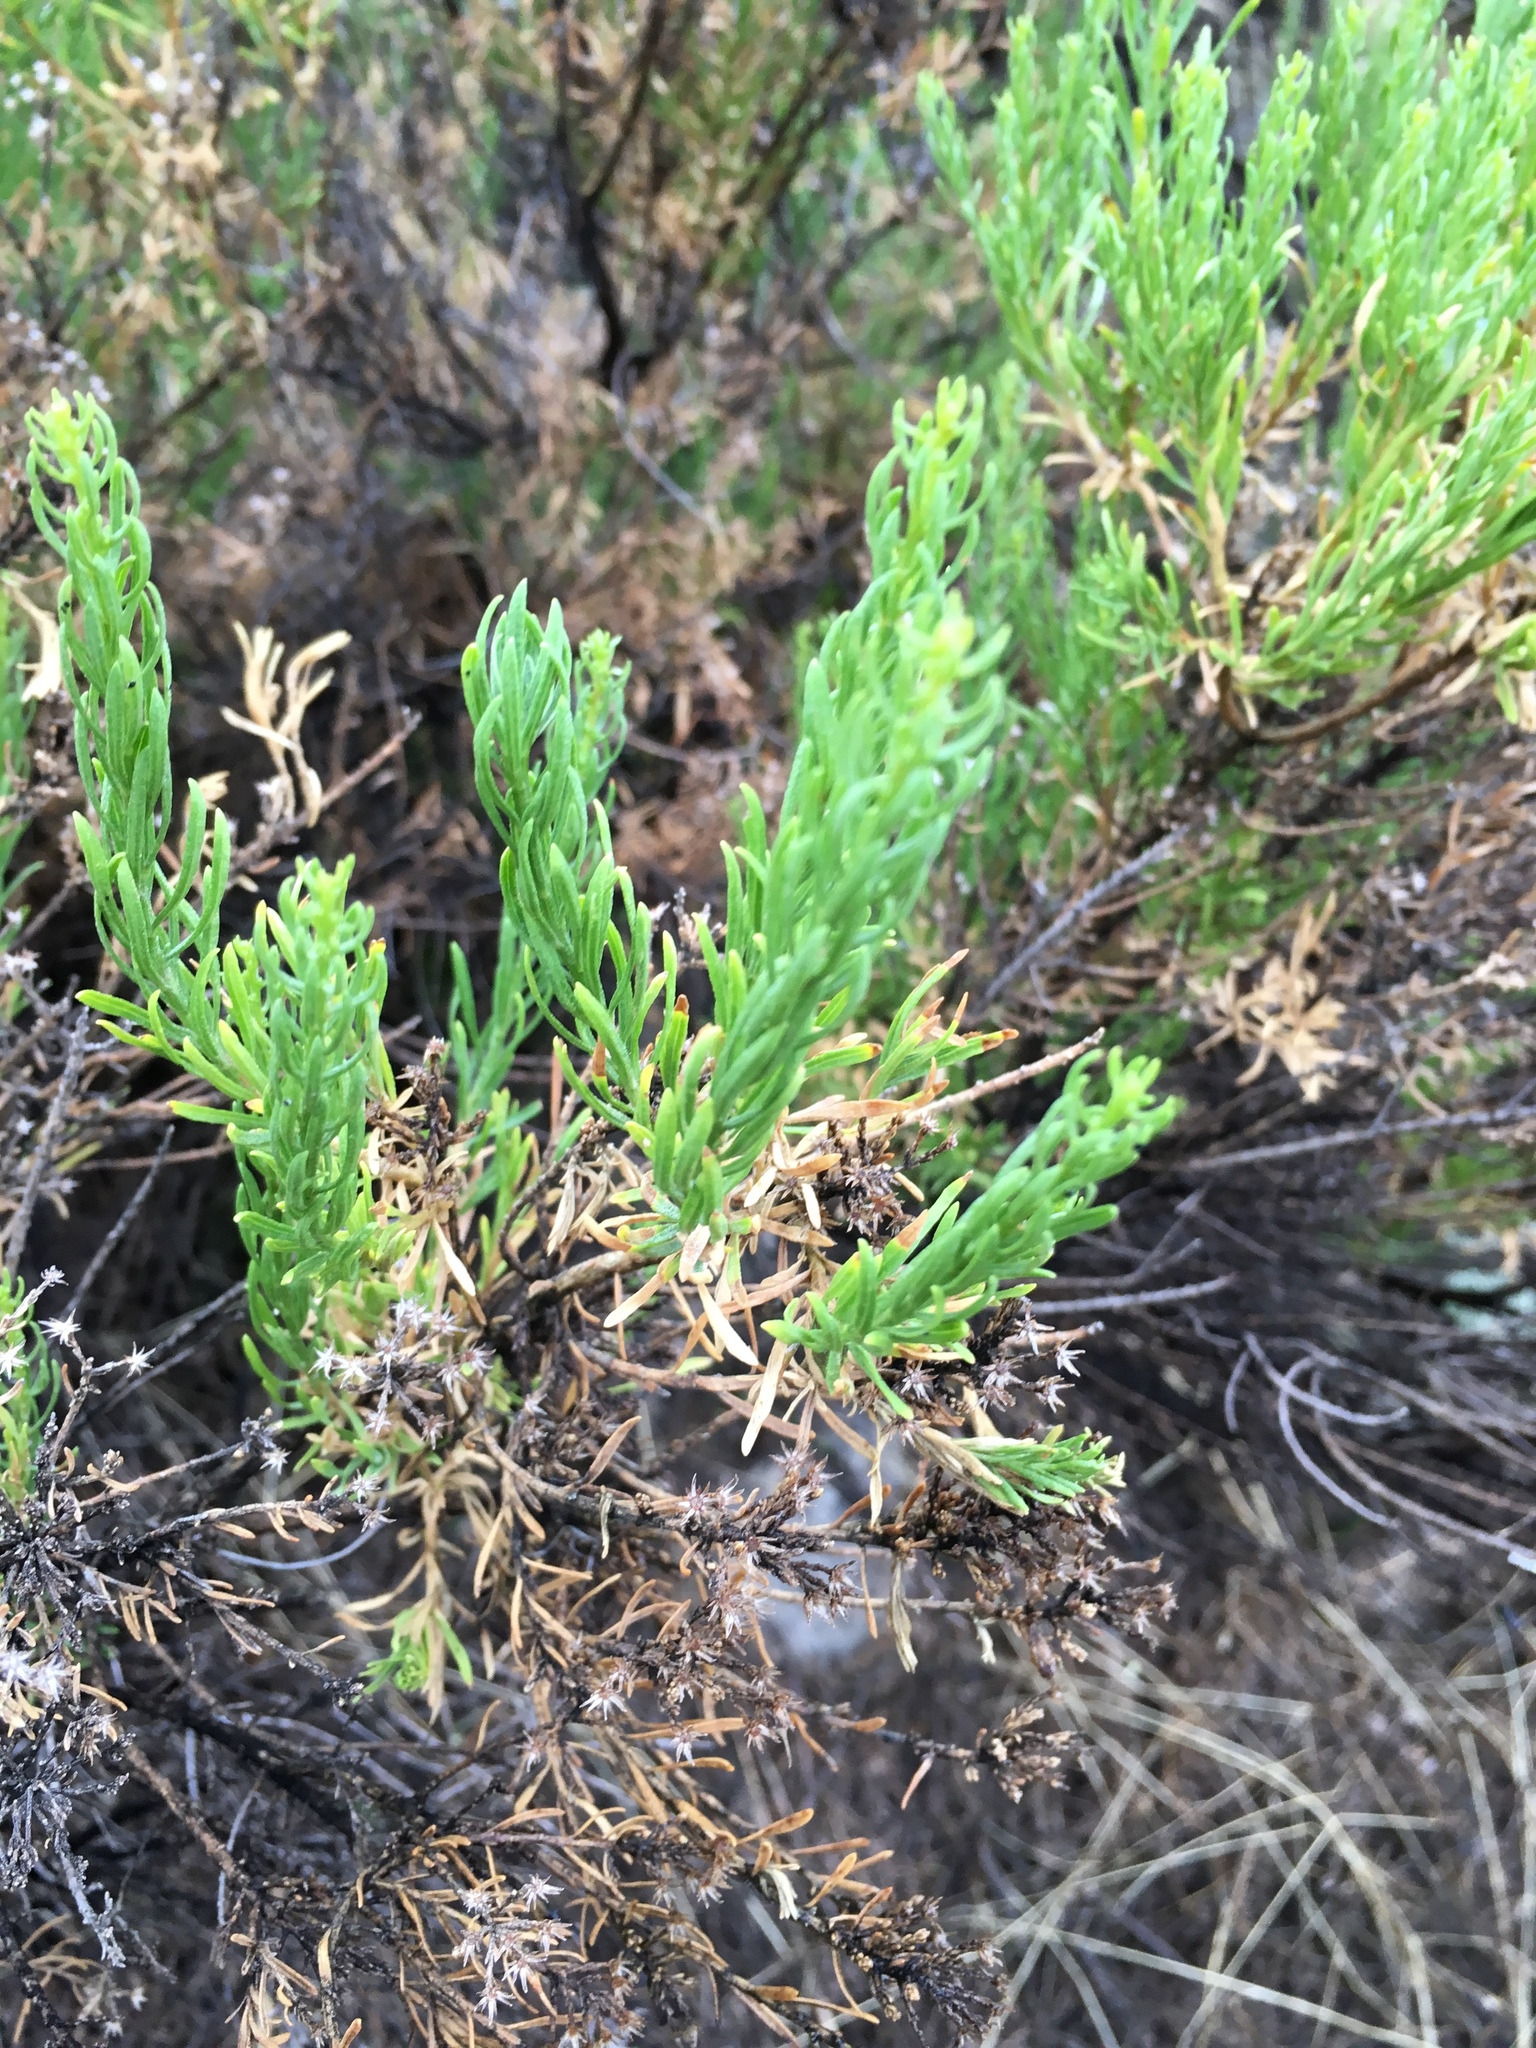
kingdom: Plantae
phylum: Tracheophyta
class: Magnoliopsida
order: Asterales
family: Asteraceae
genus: Ericameria
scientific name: Ericameria laricifolia
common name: Turpentine-bush
